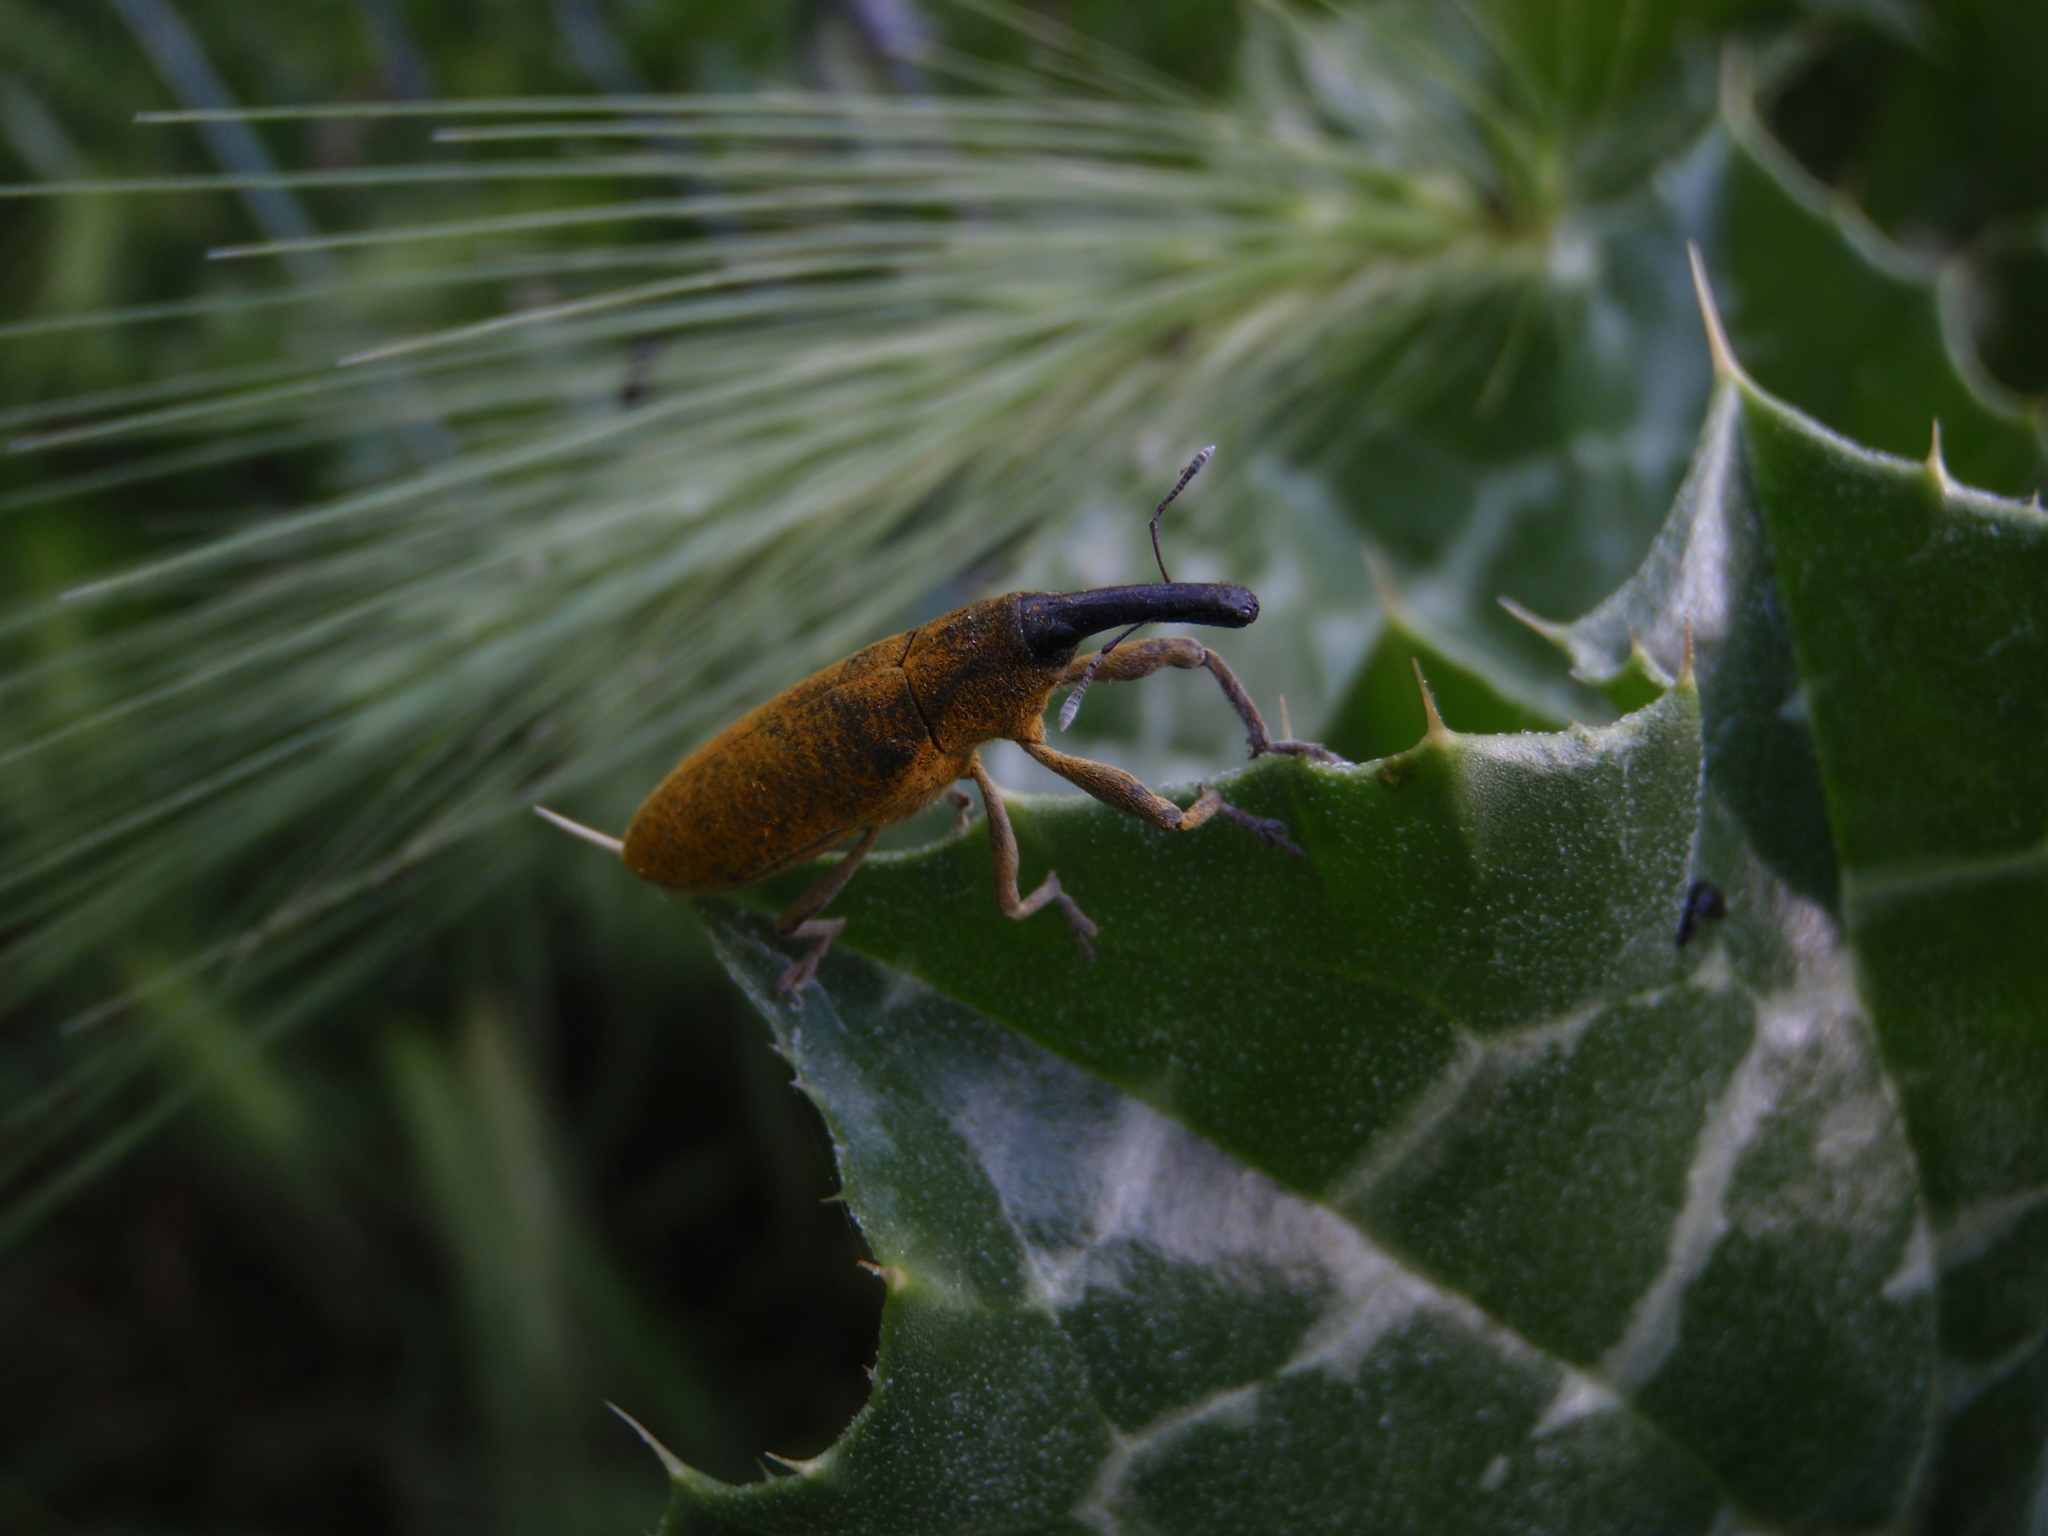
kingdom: Animalia
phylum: Arthropoda
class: Insecta
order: Coleoptera
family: Curculionidae
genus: Lixus
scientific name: Lixus pulverulentus
